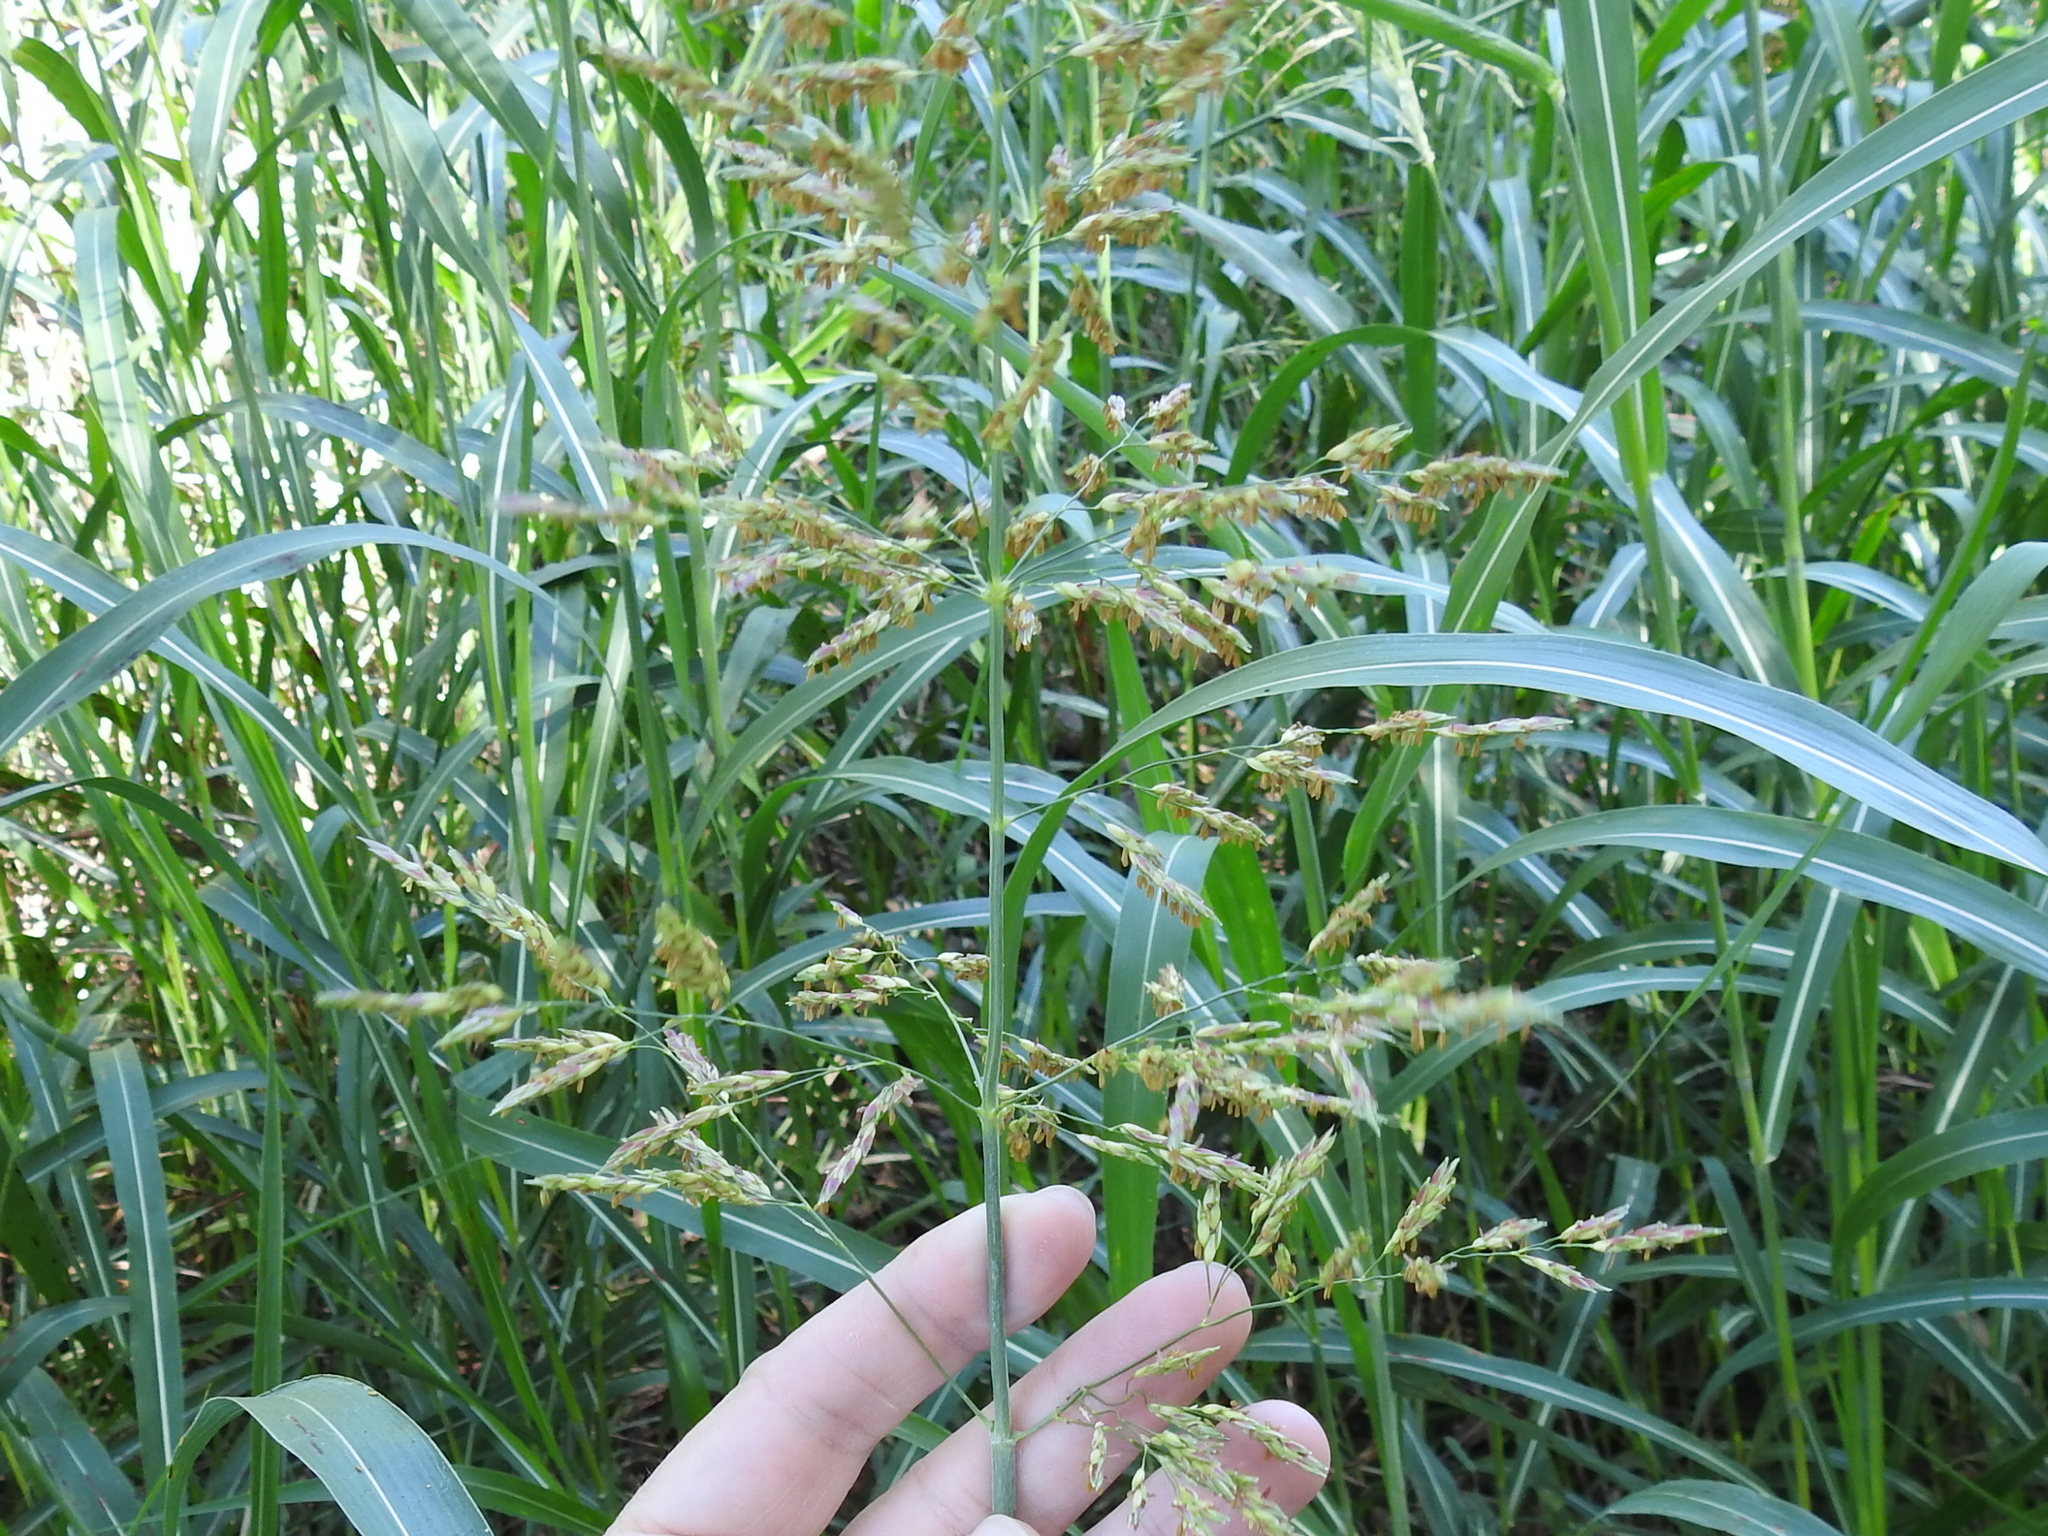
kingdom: Plantae
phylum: Tracheophyta
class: Liliopsida
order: Poales
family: Poaceae
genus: Sorghum
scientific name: Sorghum halepense
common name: Johnson-grass
